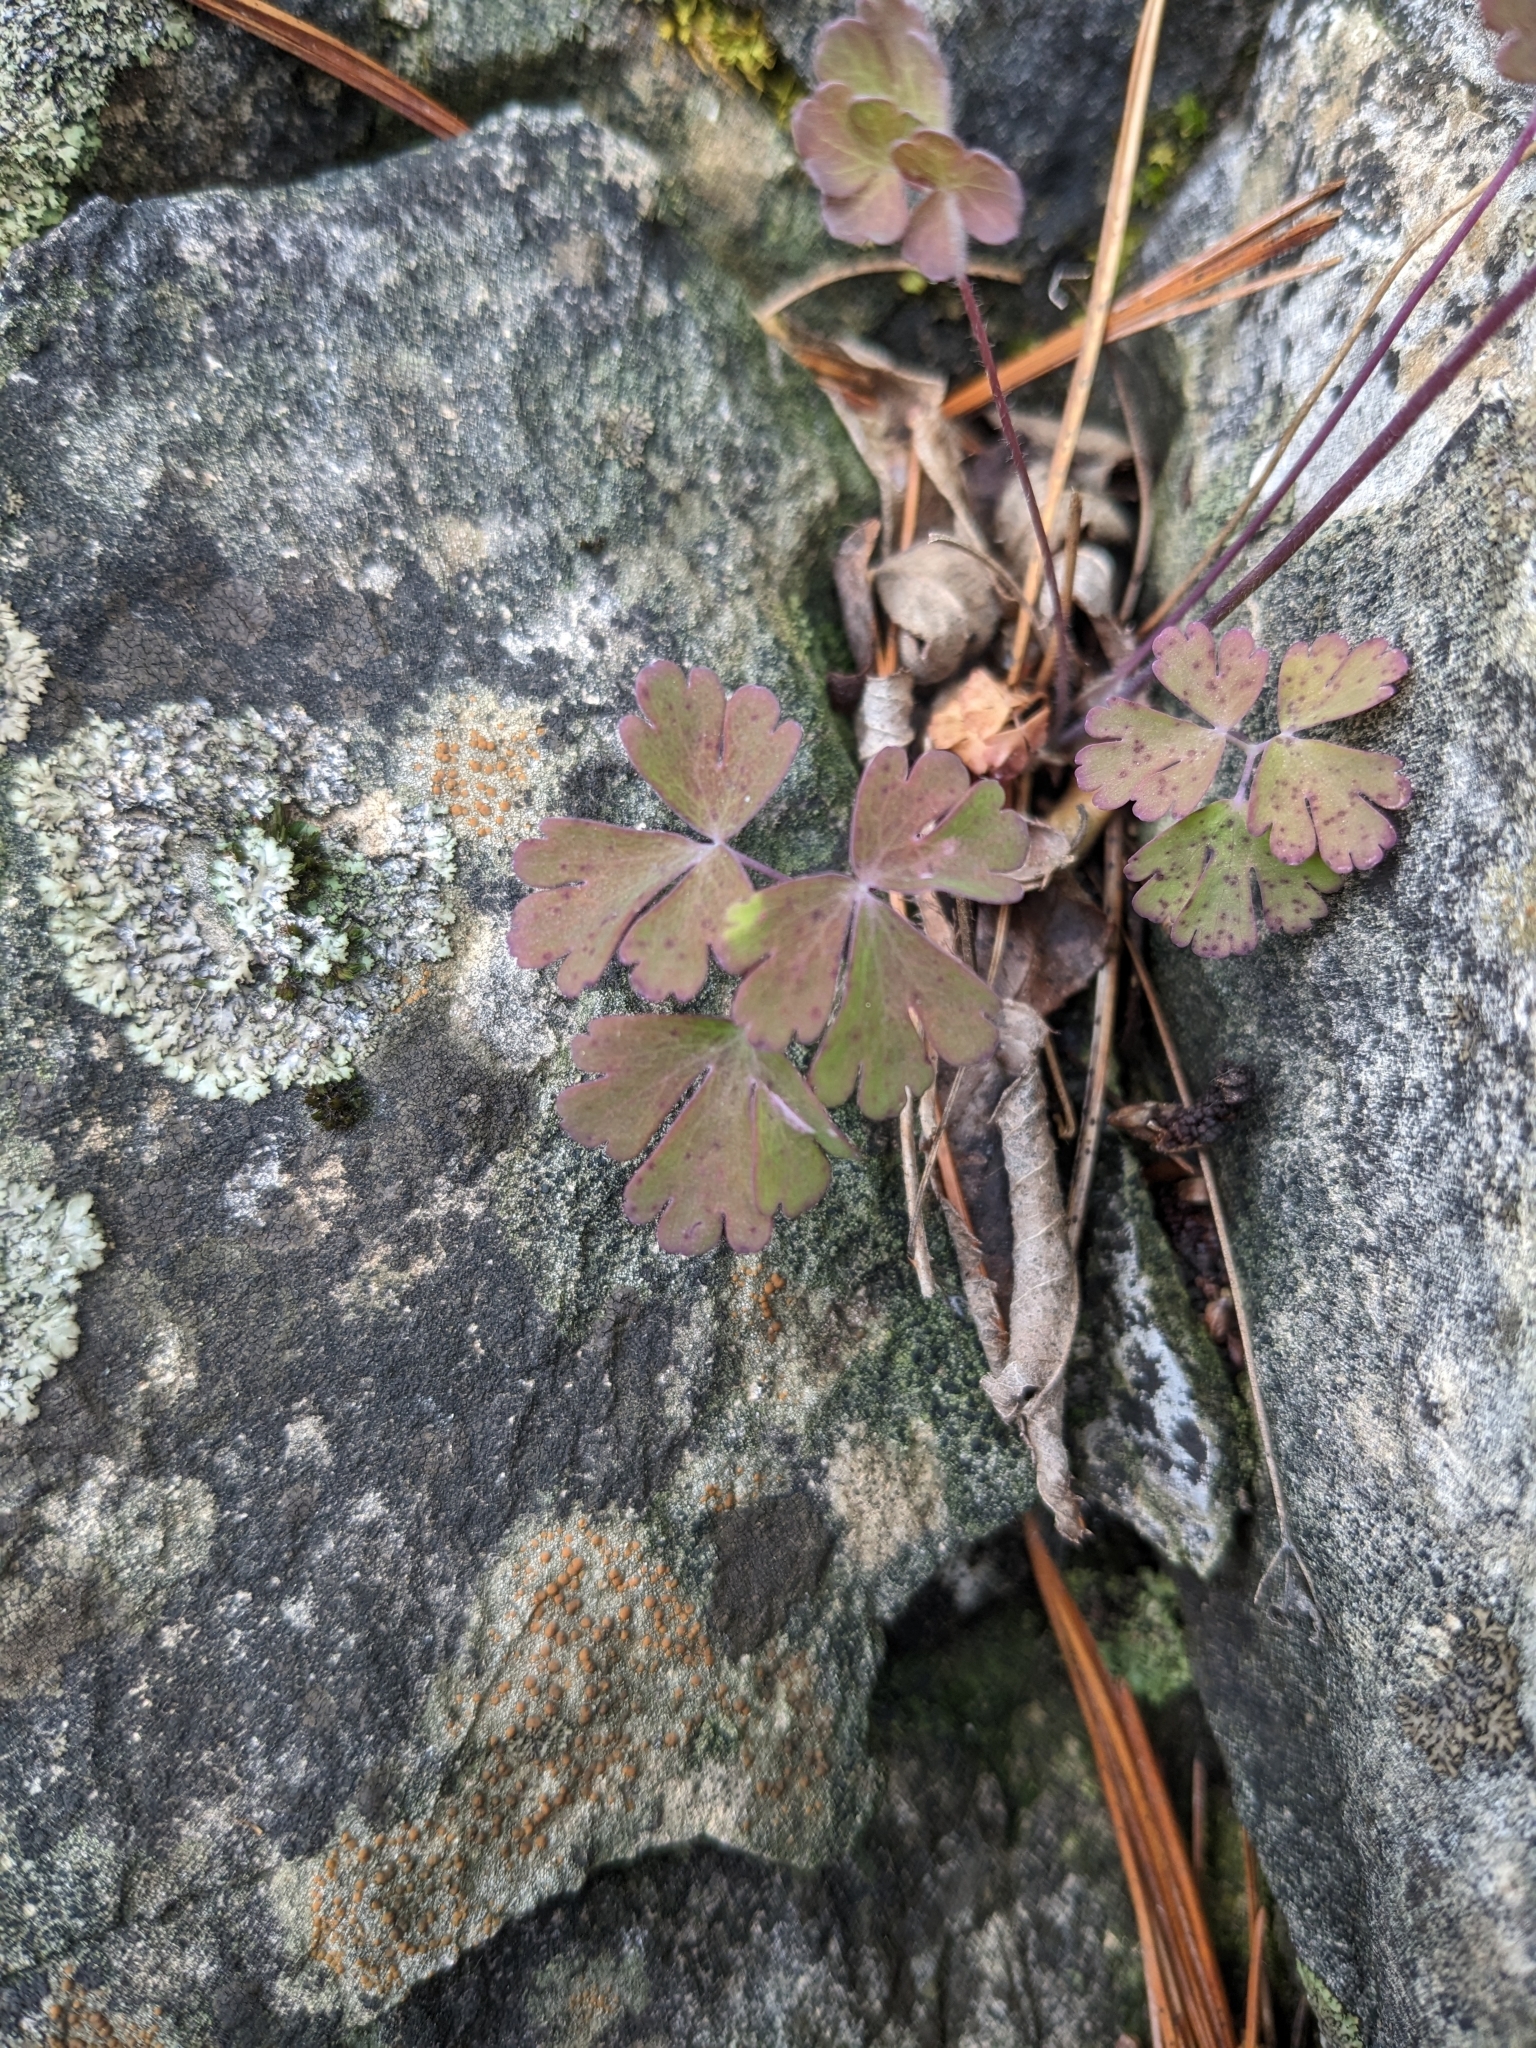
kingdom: Plantae
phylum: Tracheophyta
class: Magnoliopsida
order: Ranunculales
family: Ranunculaceae
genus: Aquilegia
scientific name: Aquilegia canadensis
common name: American columbine
